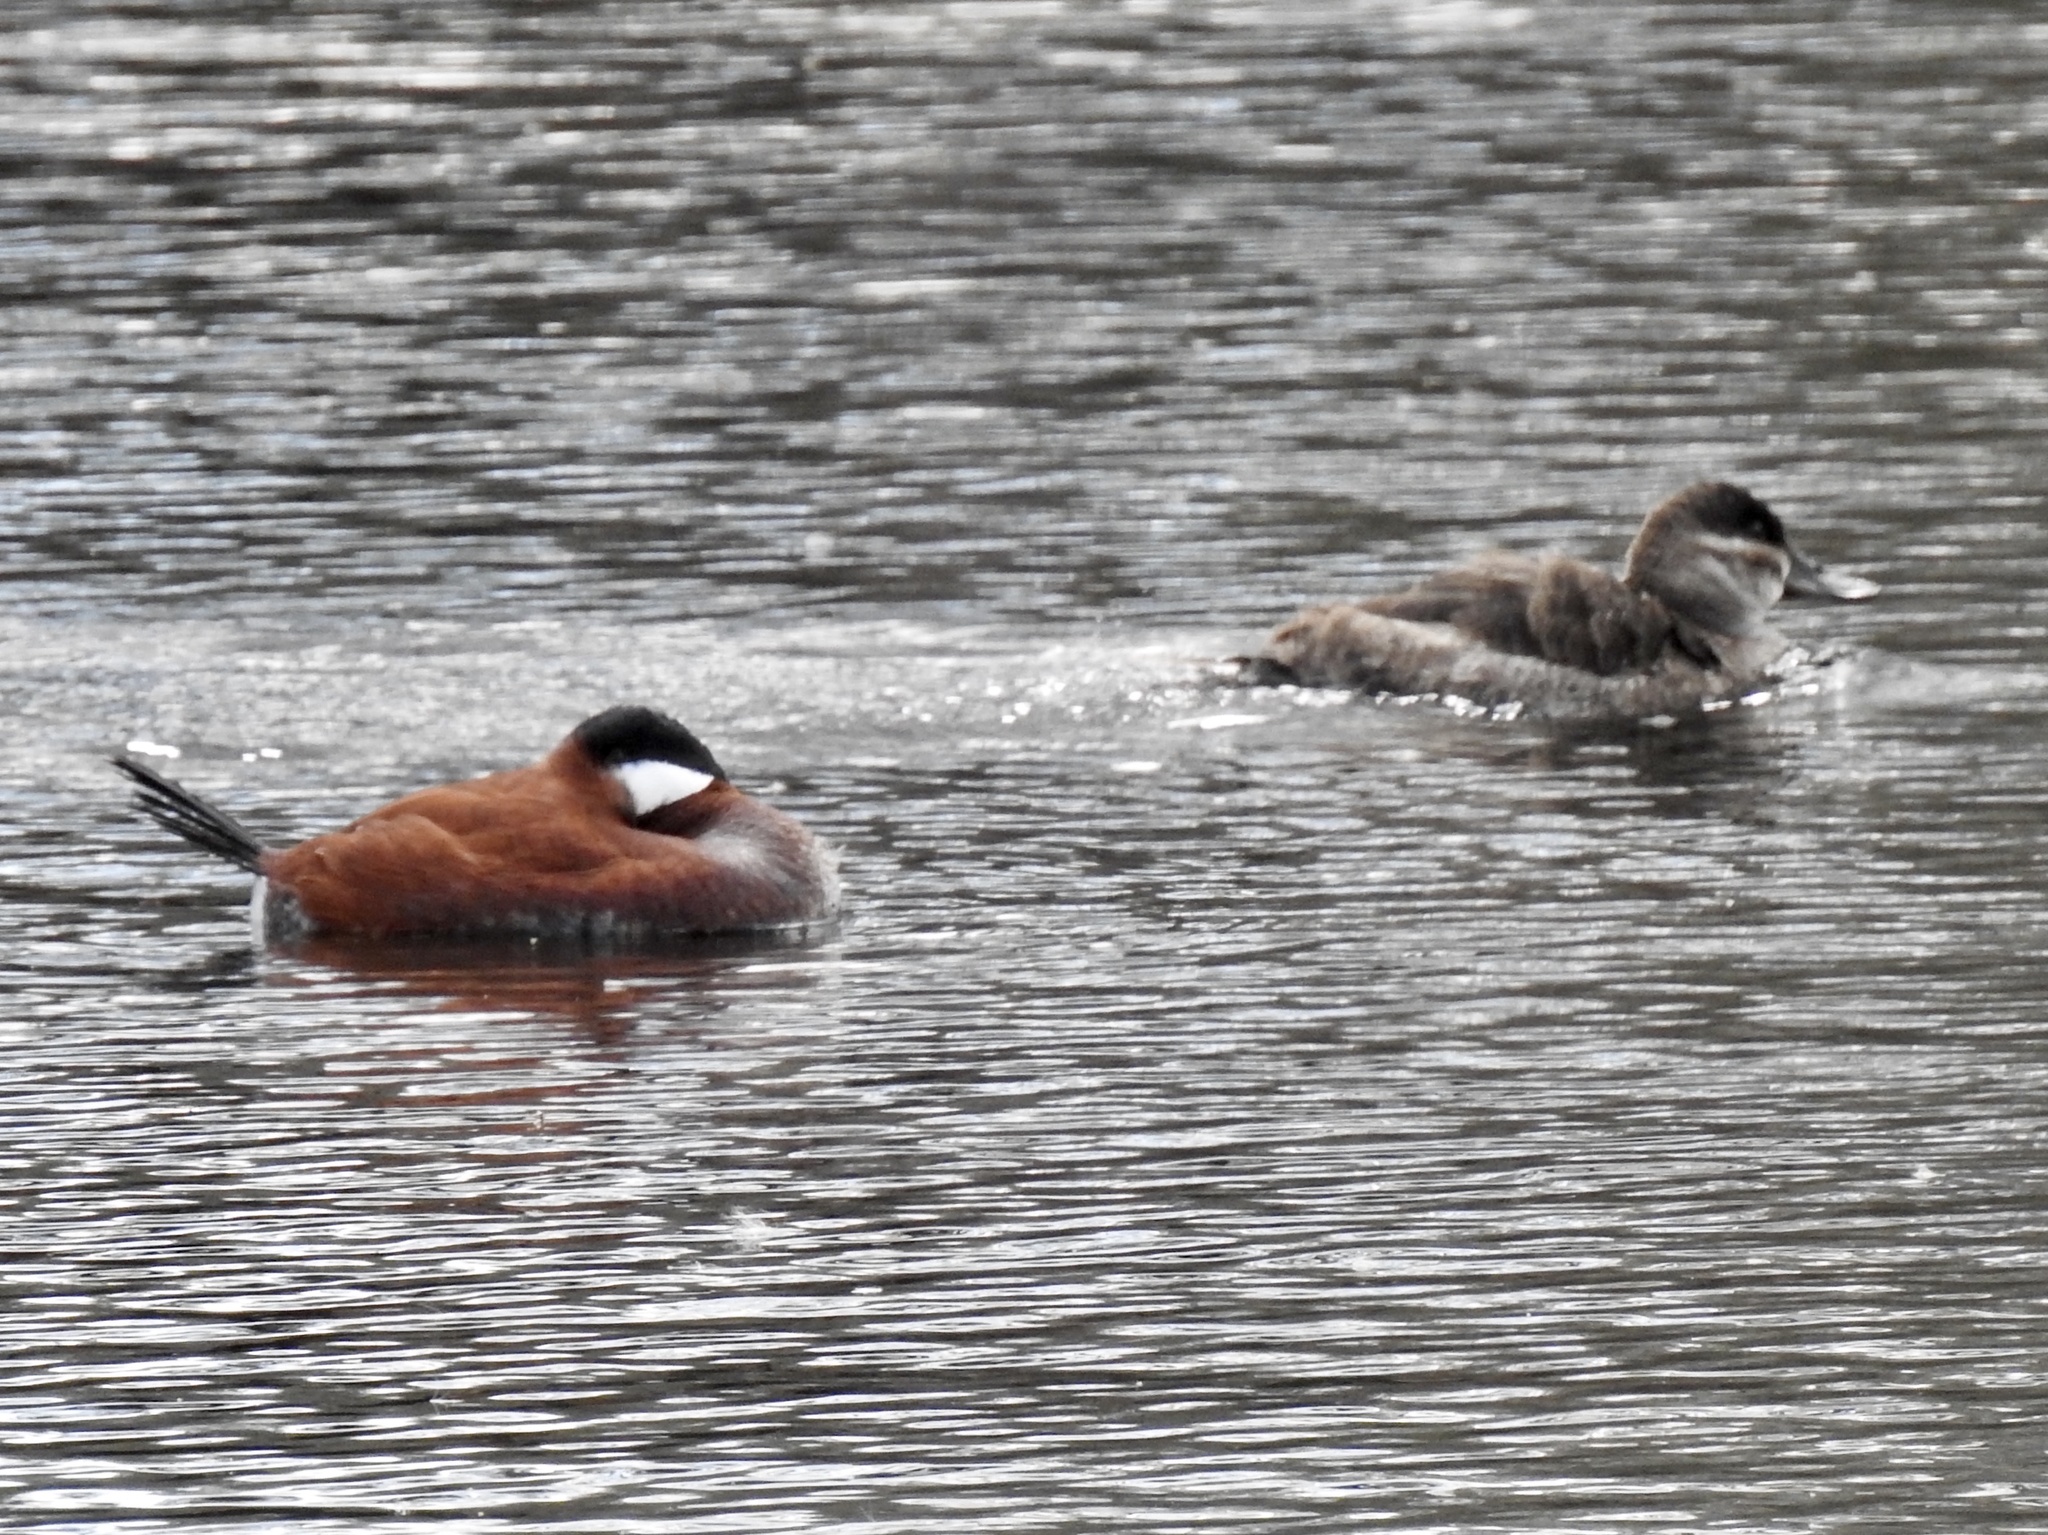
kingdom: Animalia
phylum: Chordata
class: Aves
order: Anseriformes
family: Anatidae
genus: Oxyura
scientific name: Oxyura jamaicensis
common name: Ruddy duck
